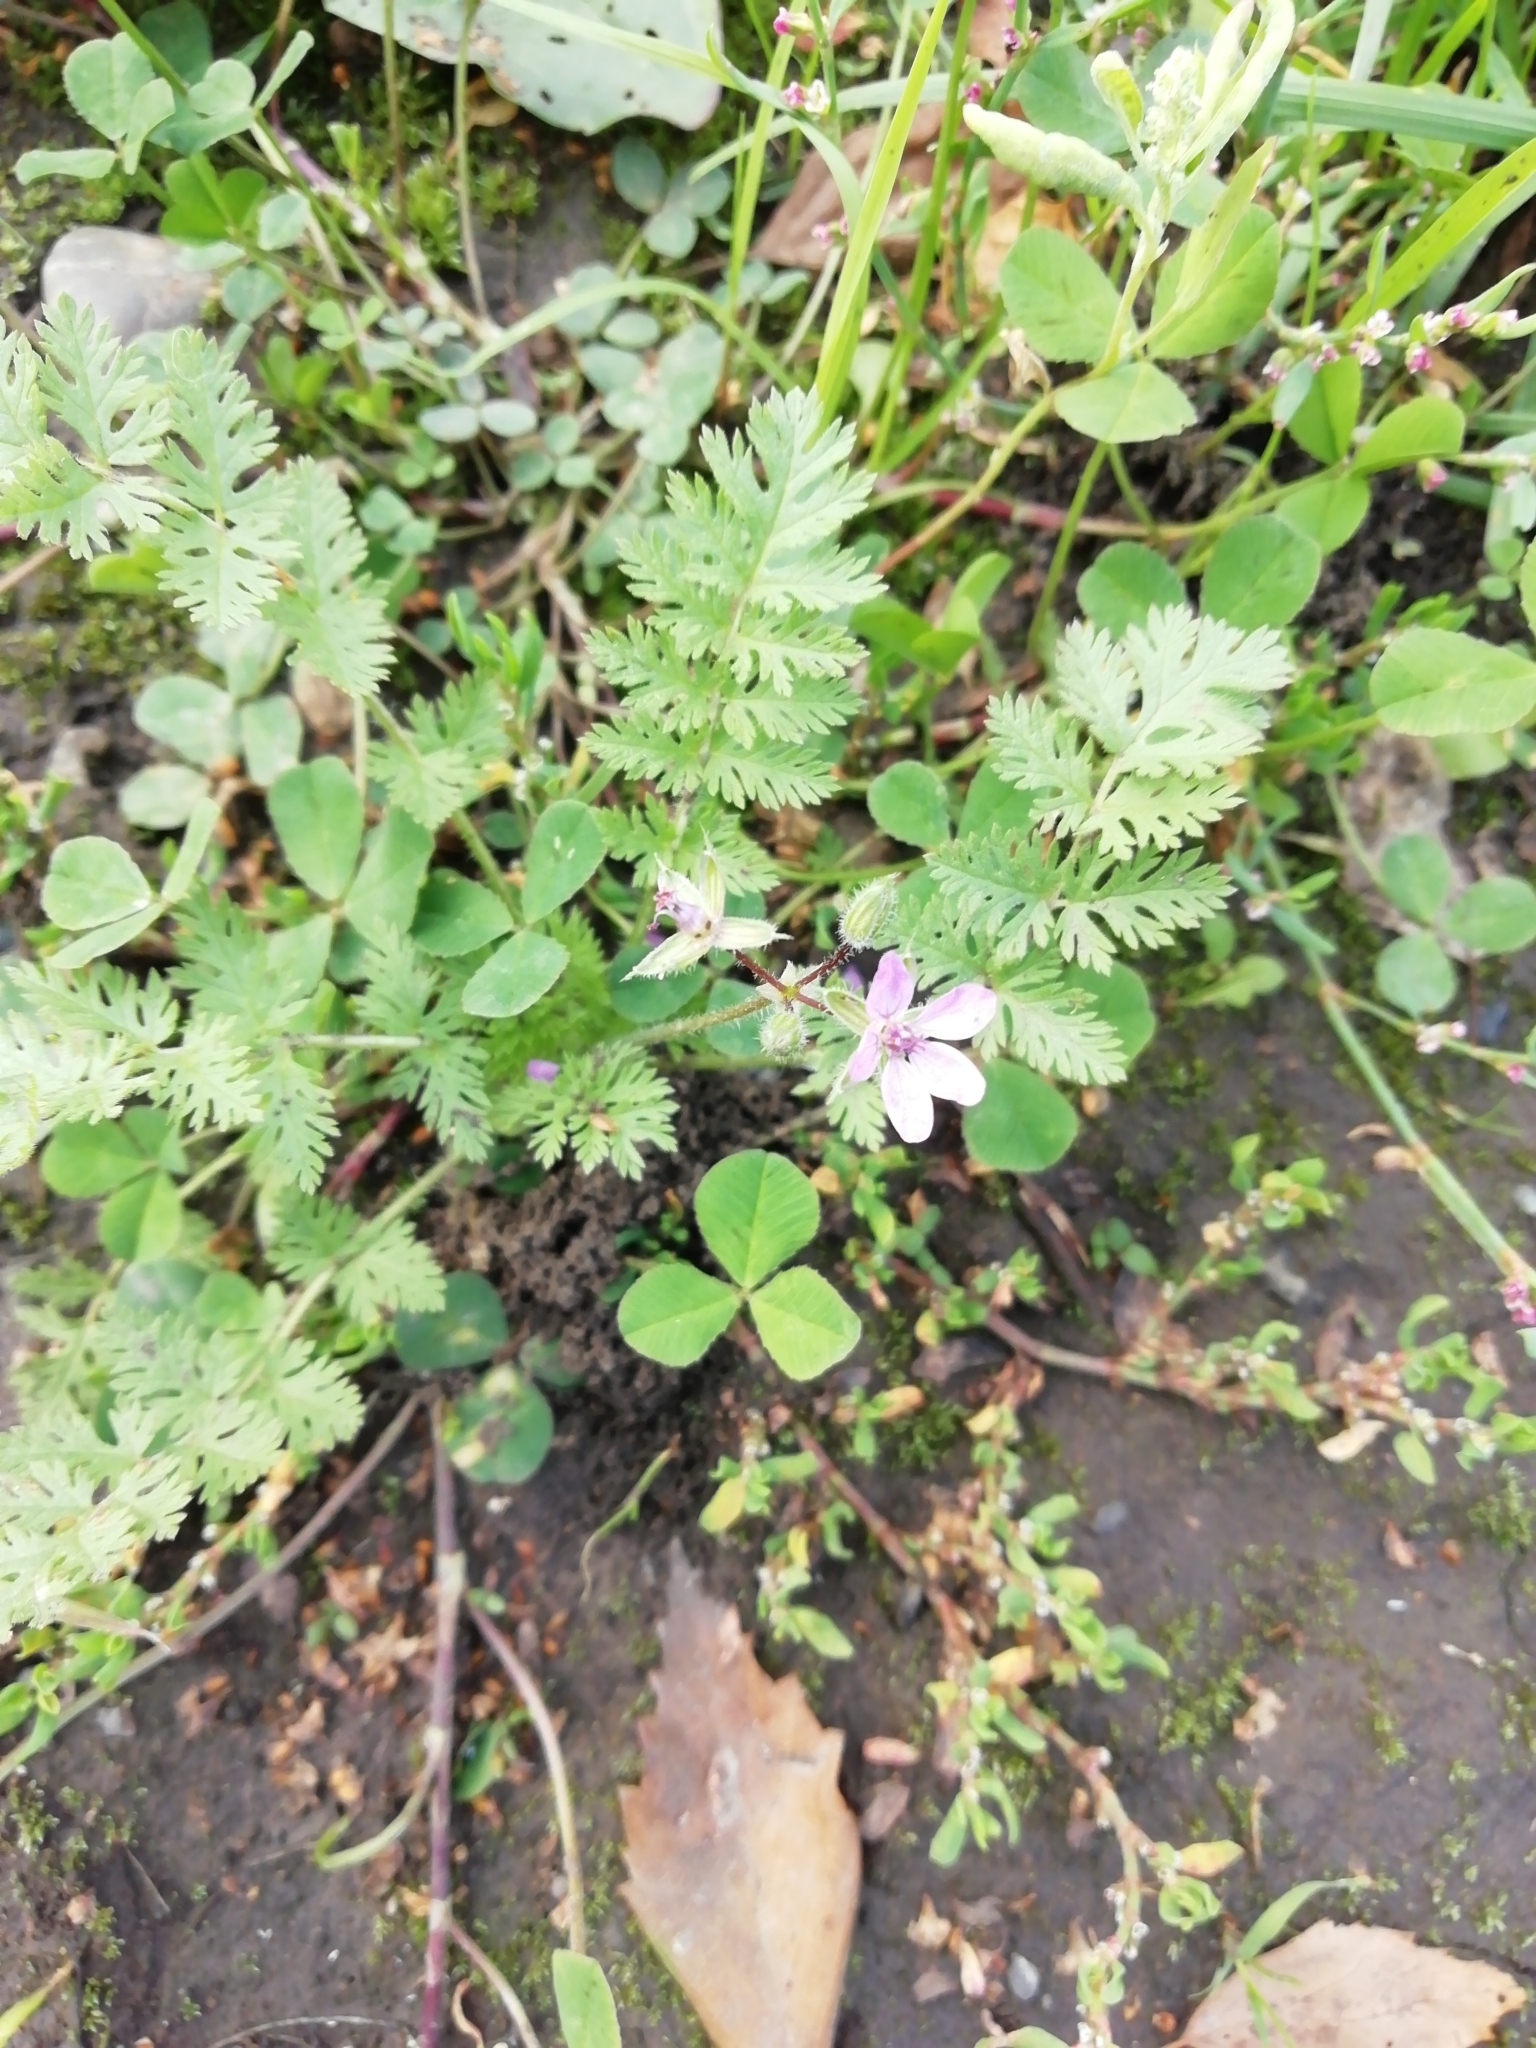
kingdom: Plantae
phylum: Tracheophyta
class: Magnoliopsida
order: Geraniales
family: Geraniaceae
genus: Erodium
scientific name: Erodium cicutarium
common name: Common stork's-bill
